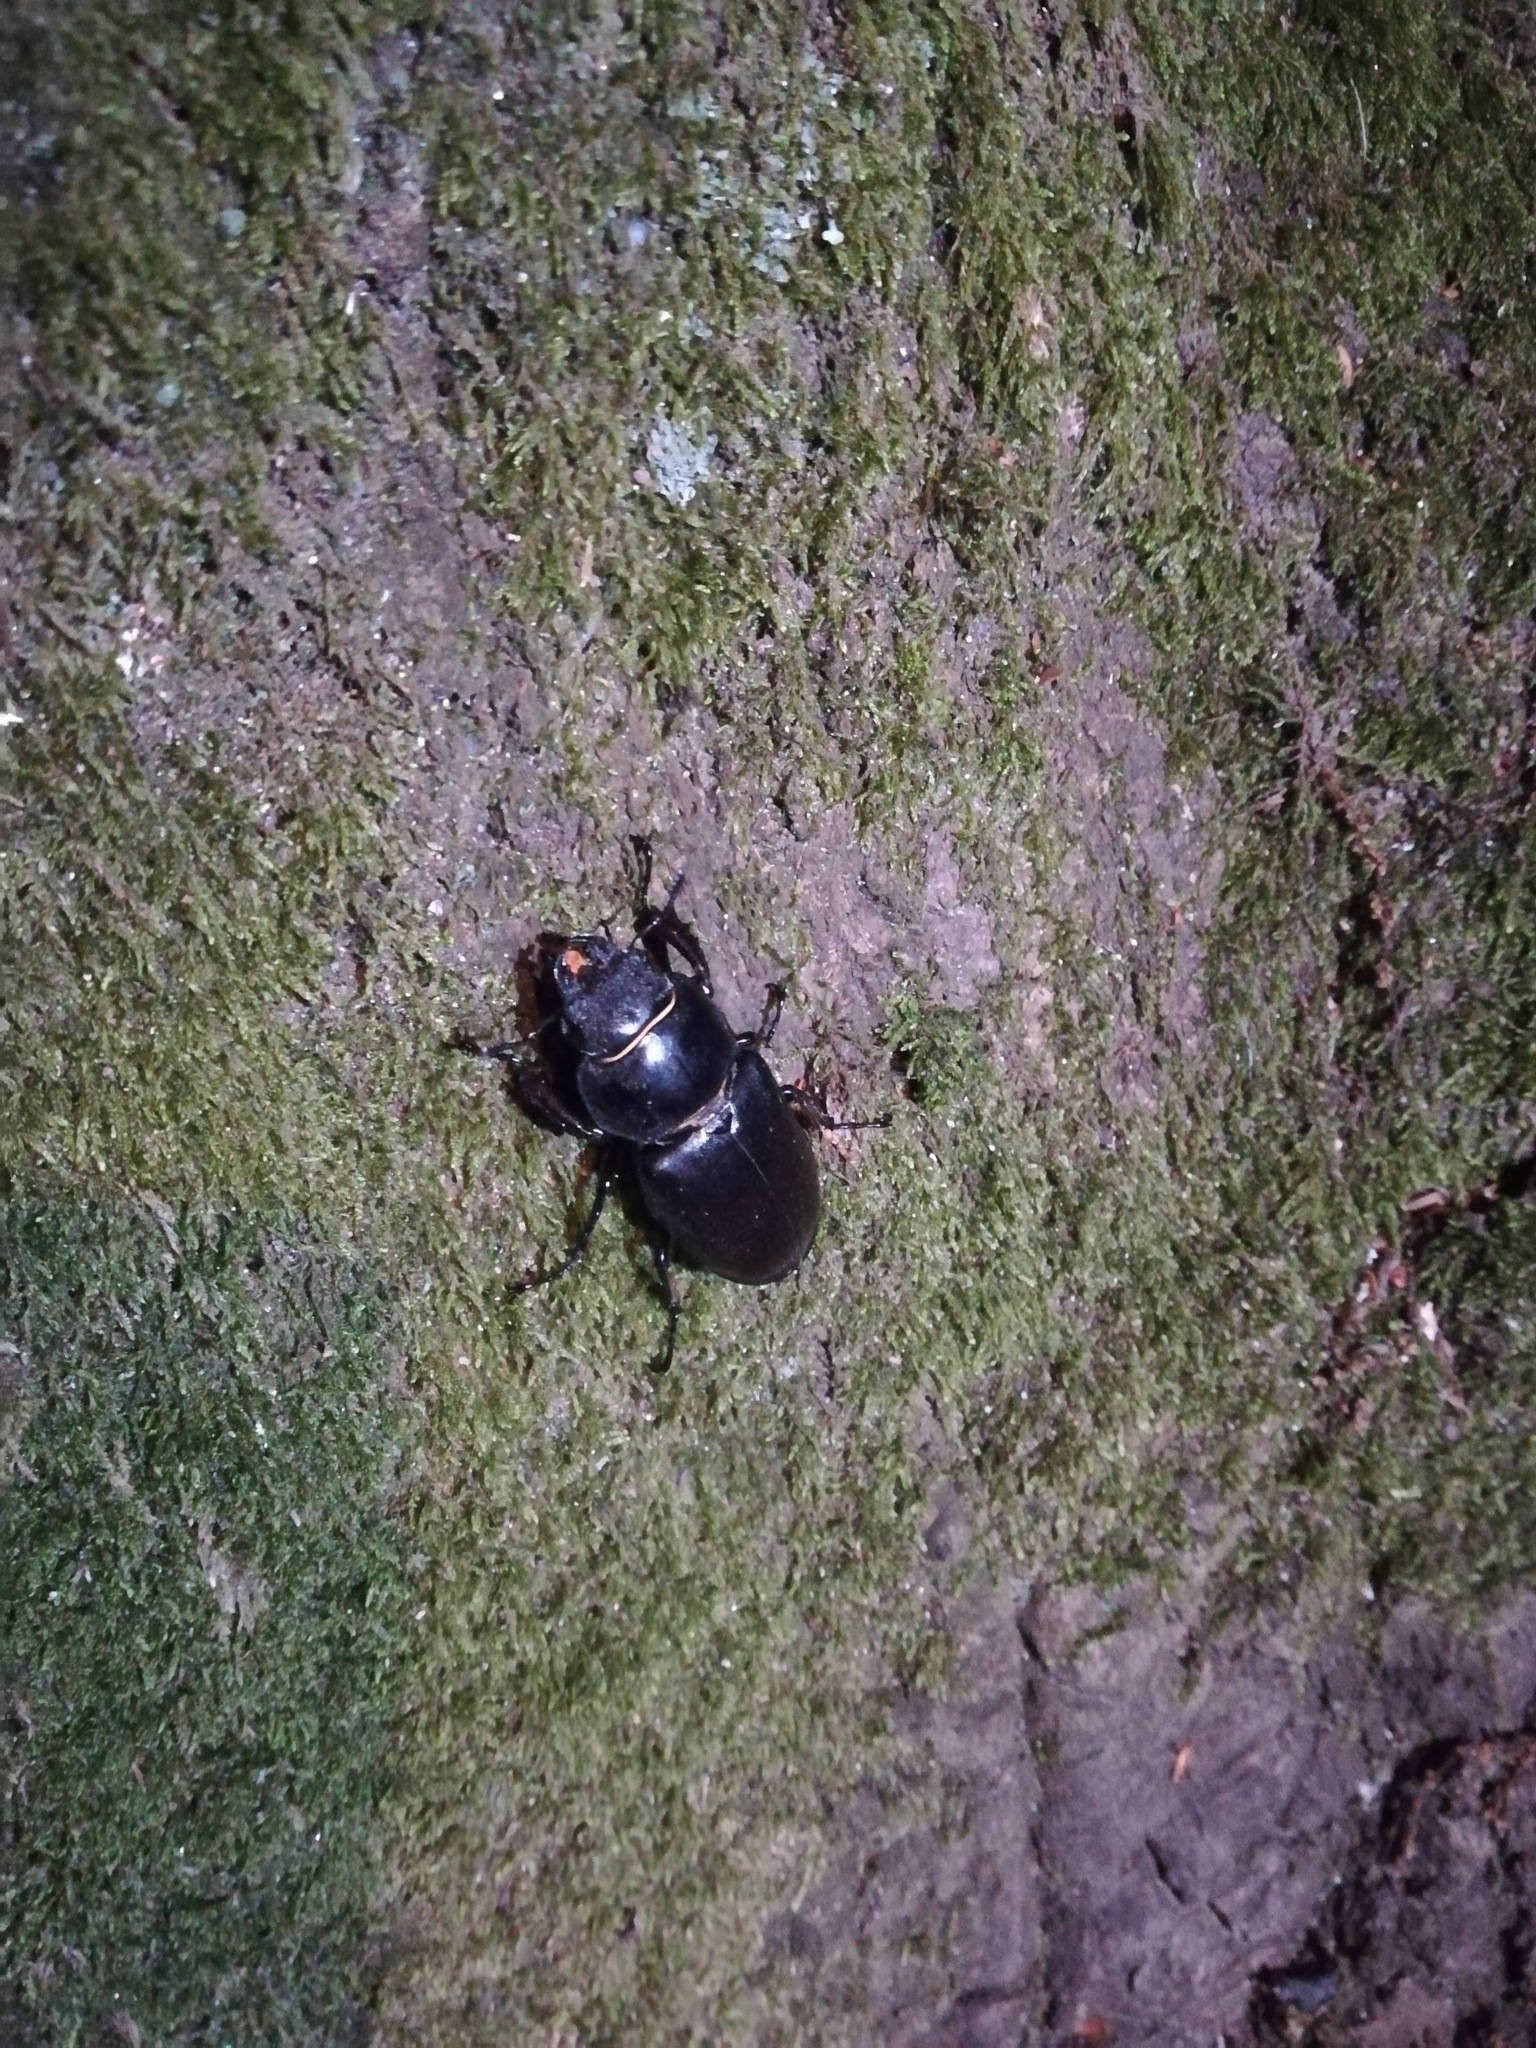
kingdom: Animalia
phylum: Arthropoda
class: Insecta
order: Coleoptera
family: Lucanidae
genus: Lucanus
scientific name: Lucanus cervus
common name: Stag beetle
